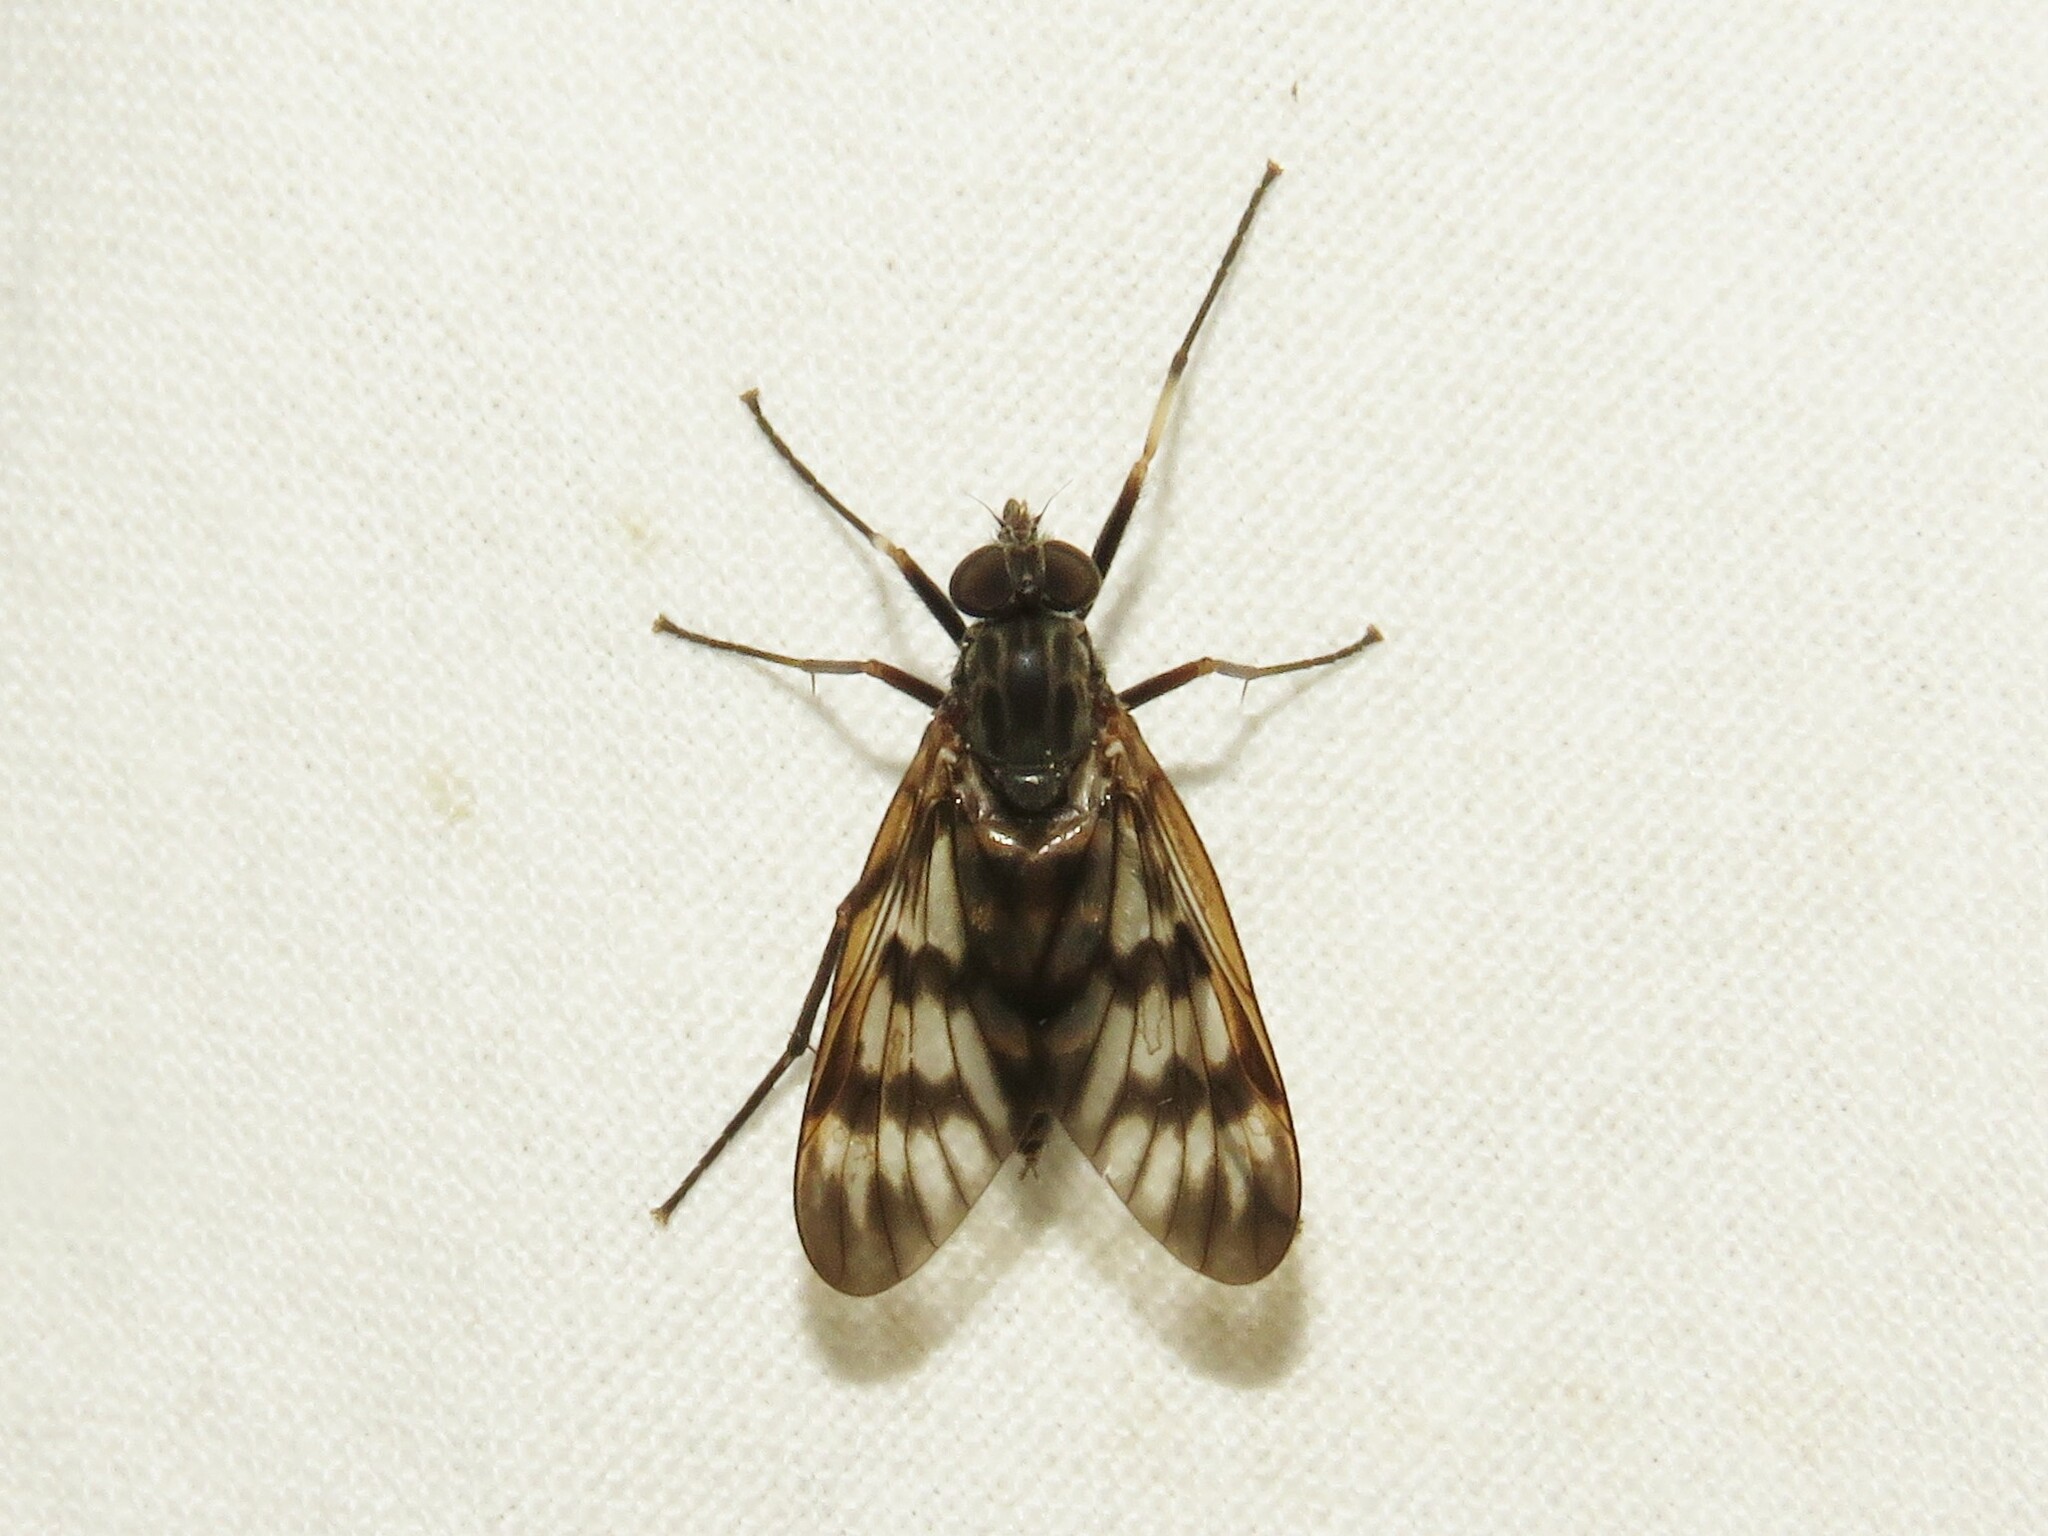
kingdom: Animalia
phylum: Arthropoda
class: Insecta
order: Diptera
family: Rhagionidae
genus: Rhagio
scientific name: Rhagio mystaceus
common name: Common snipe fly
